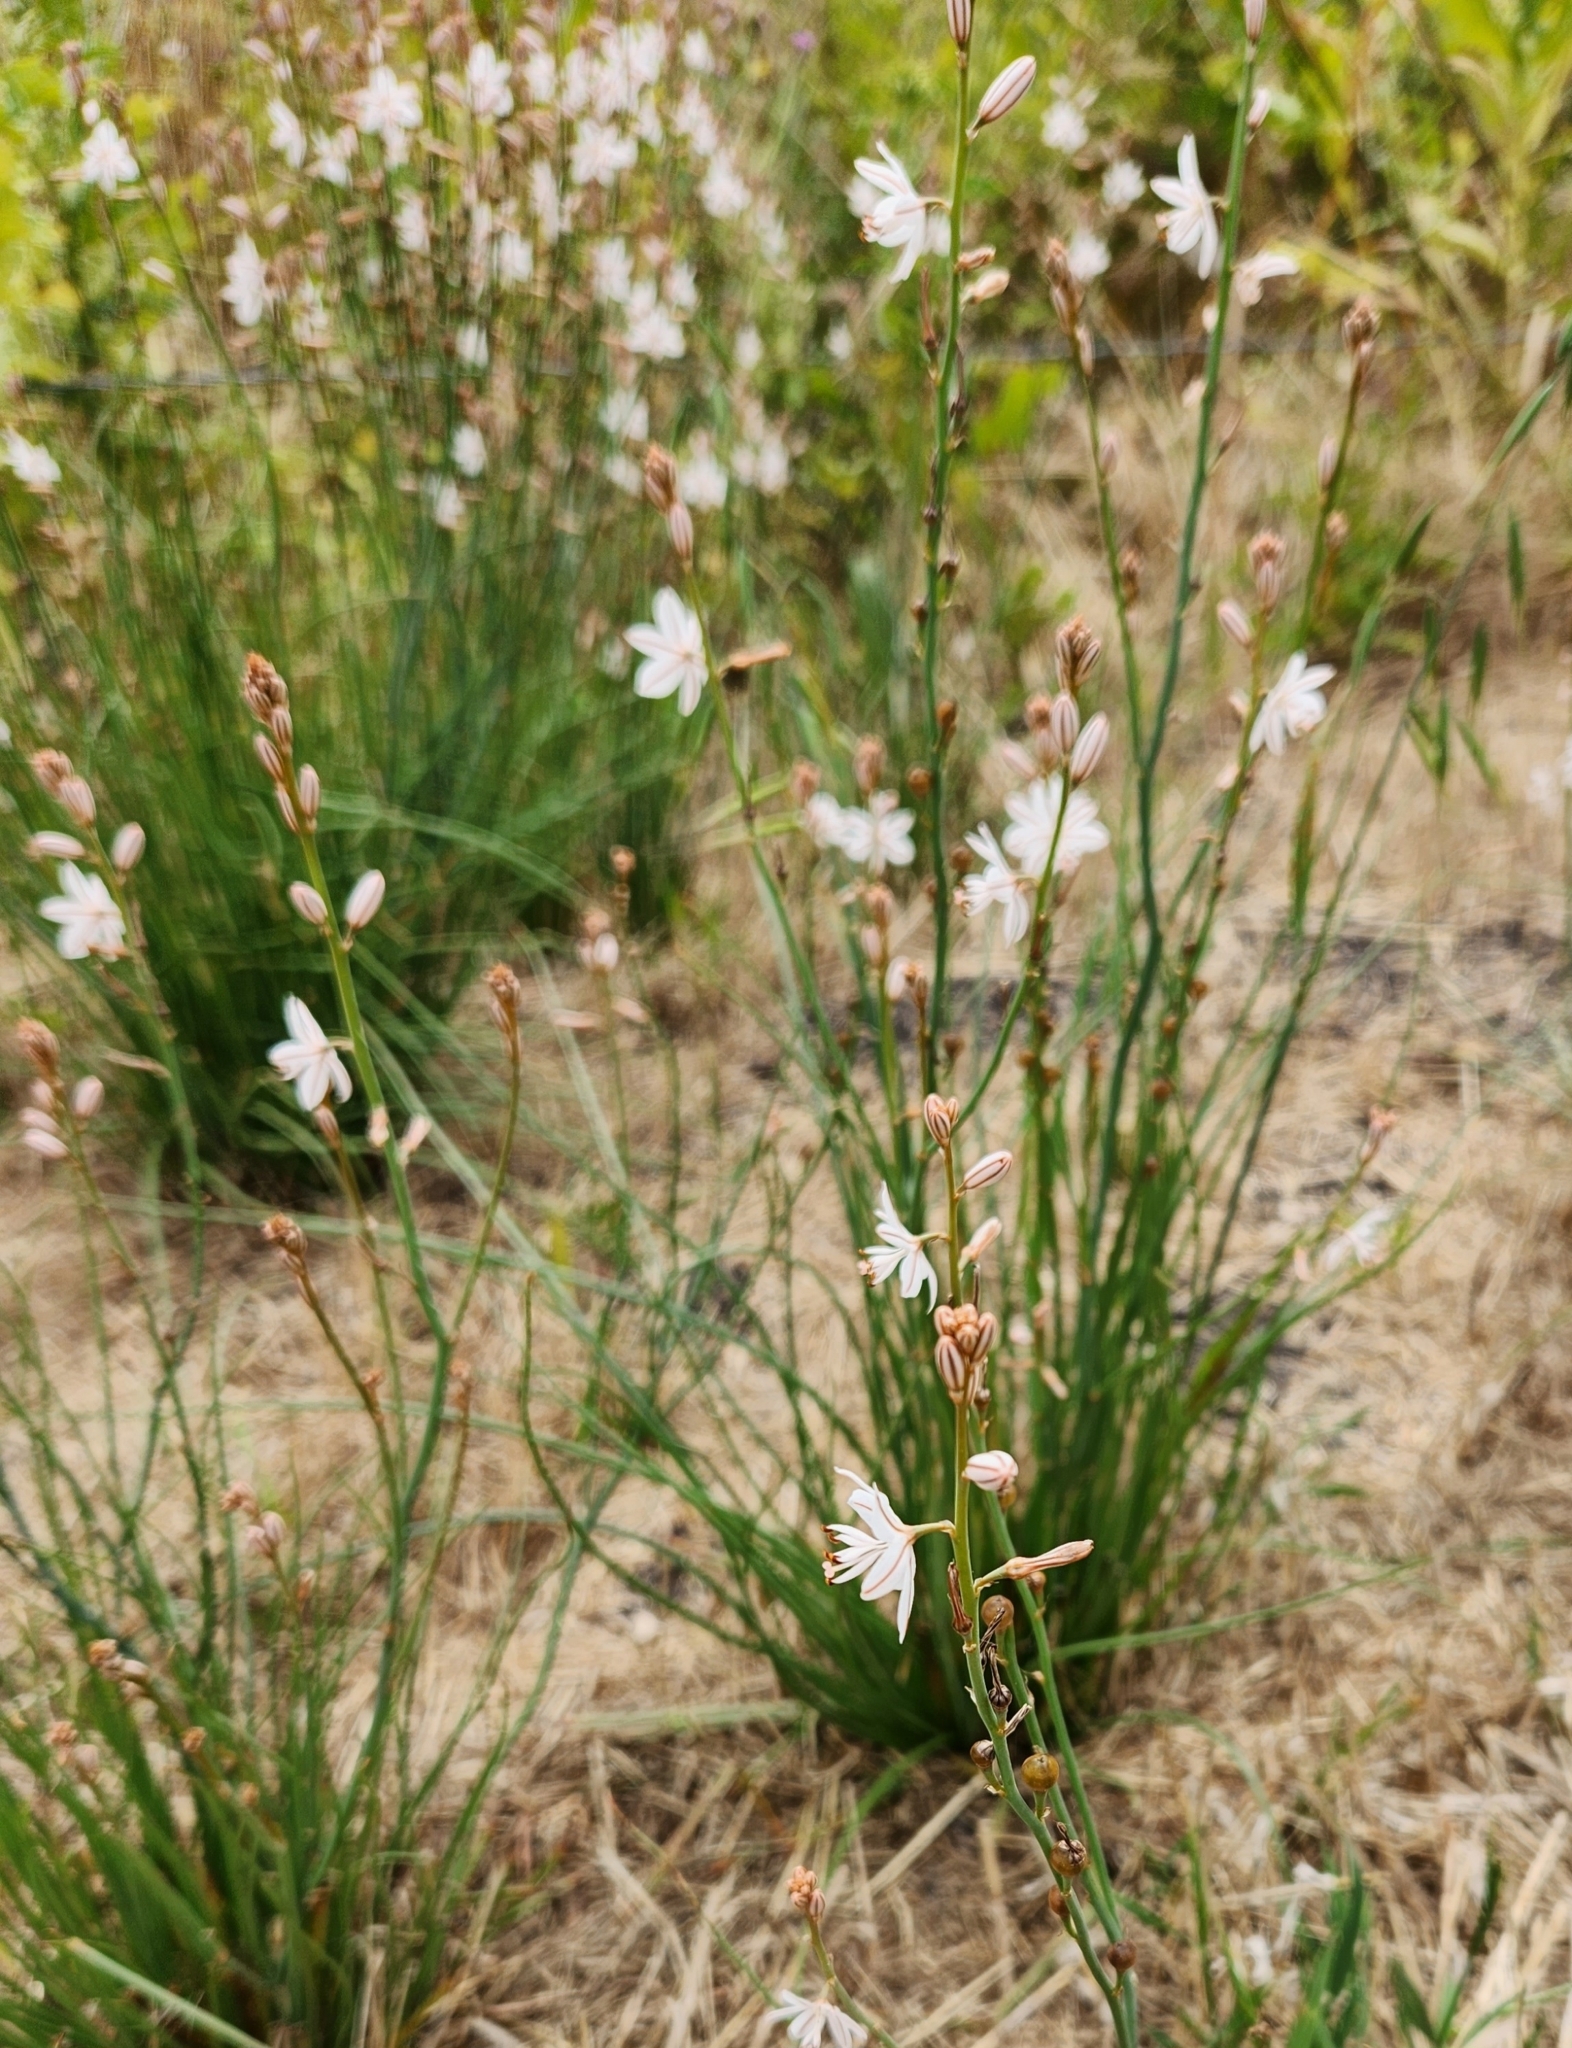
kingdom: Plantae
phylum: Tracheophyta
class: Liliopsida
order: Asparagales
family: Asphodelaceae
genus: Asphodelus
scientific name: Asphodelus fistulosus
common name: Onionweed
